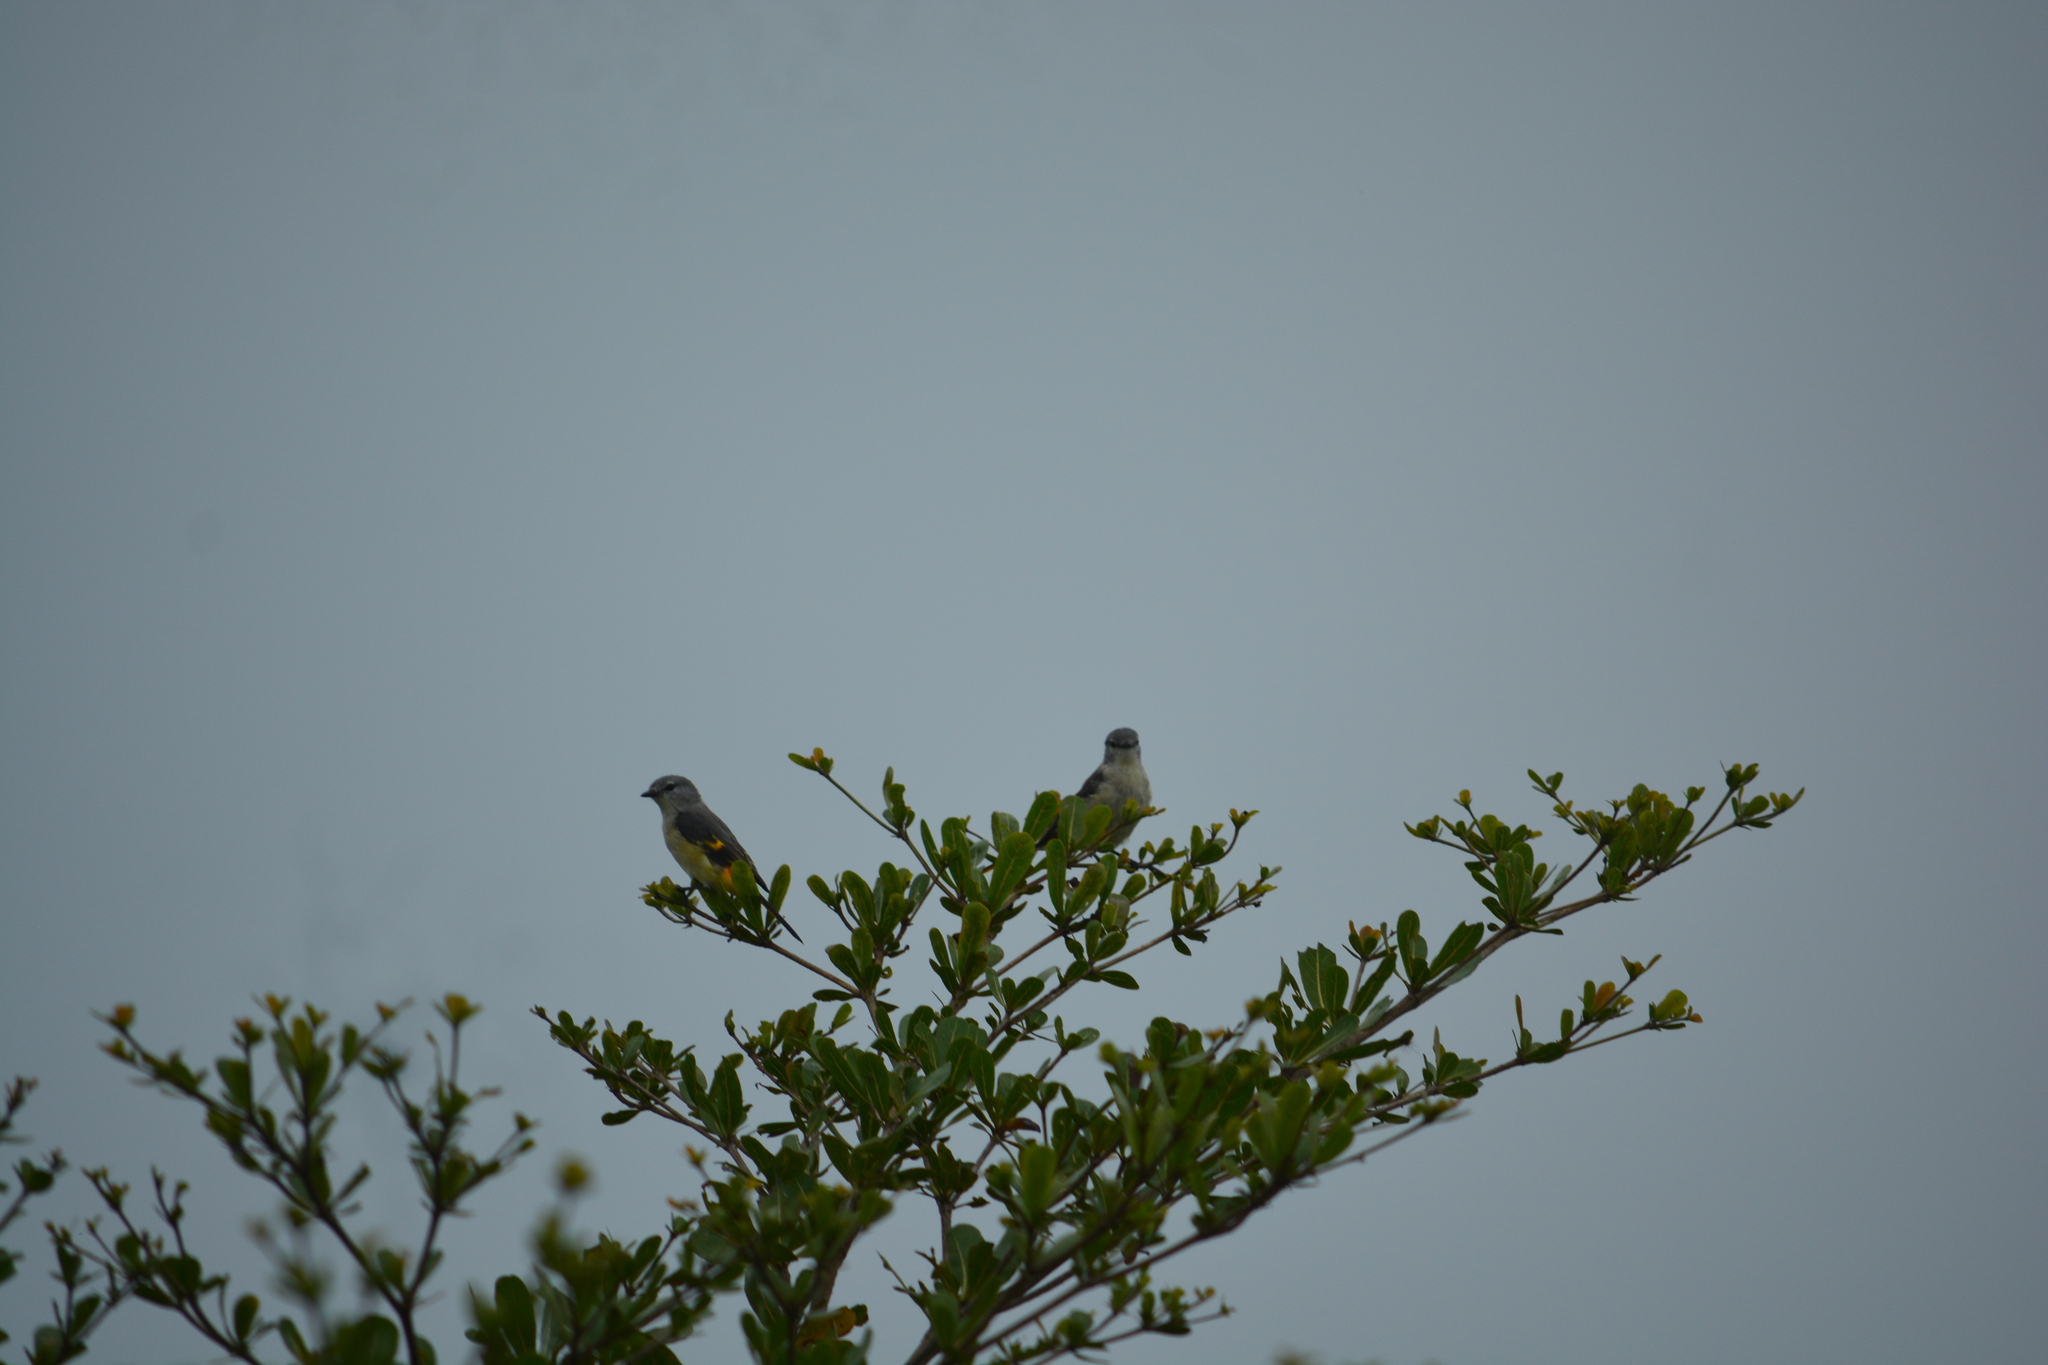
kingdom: Animalia
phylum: Chordata
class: Aves
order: Passeriformes
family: Campephagidae
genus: Pericrocotus
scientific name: Pericrocotus cinnamomeus
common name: Small minivet
